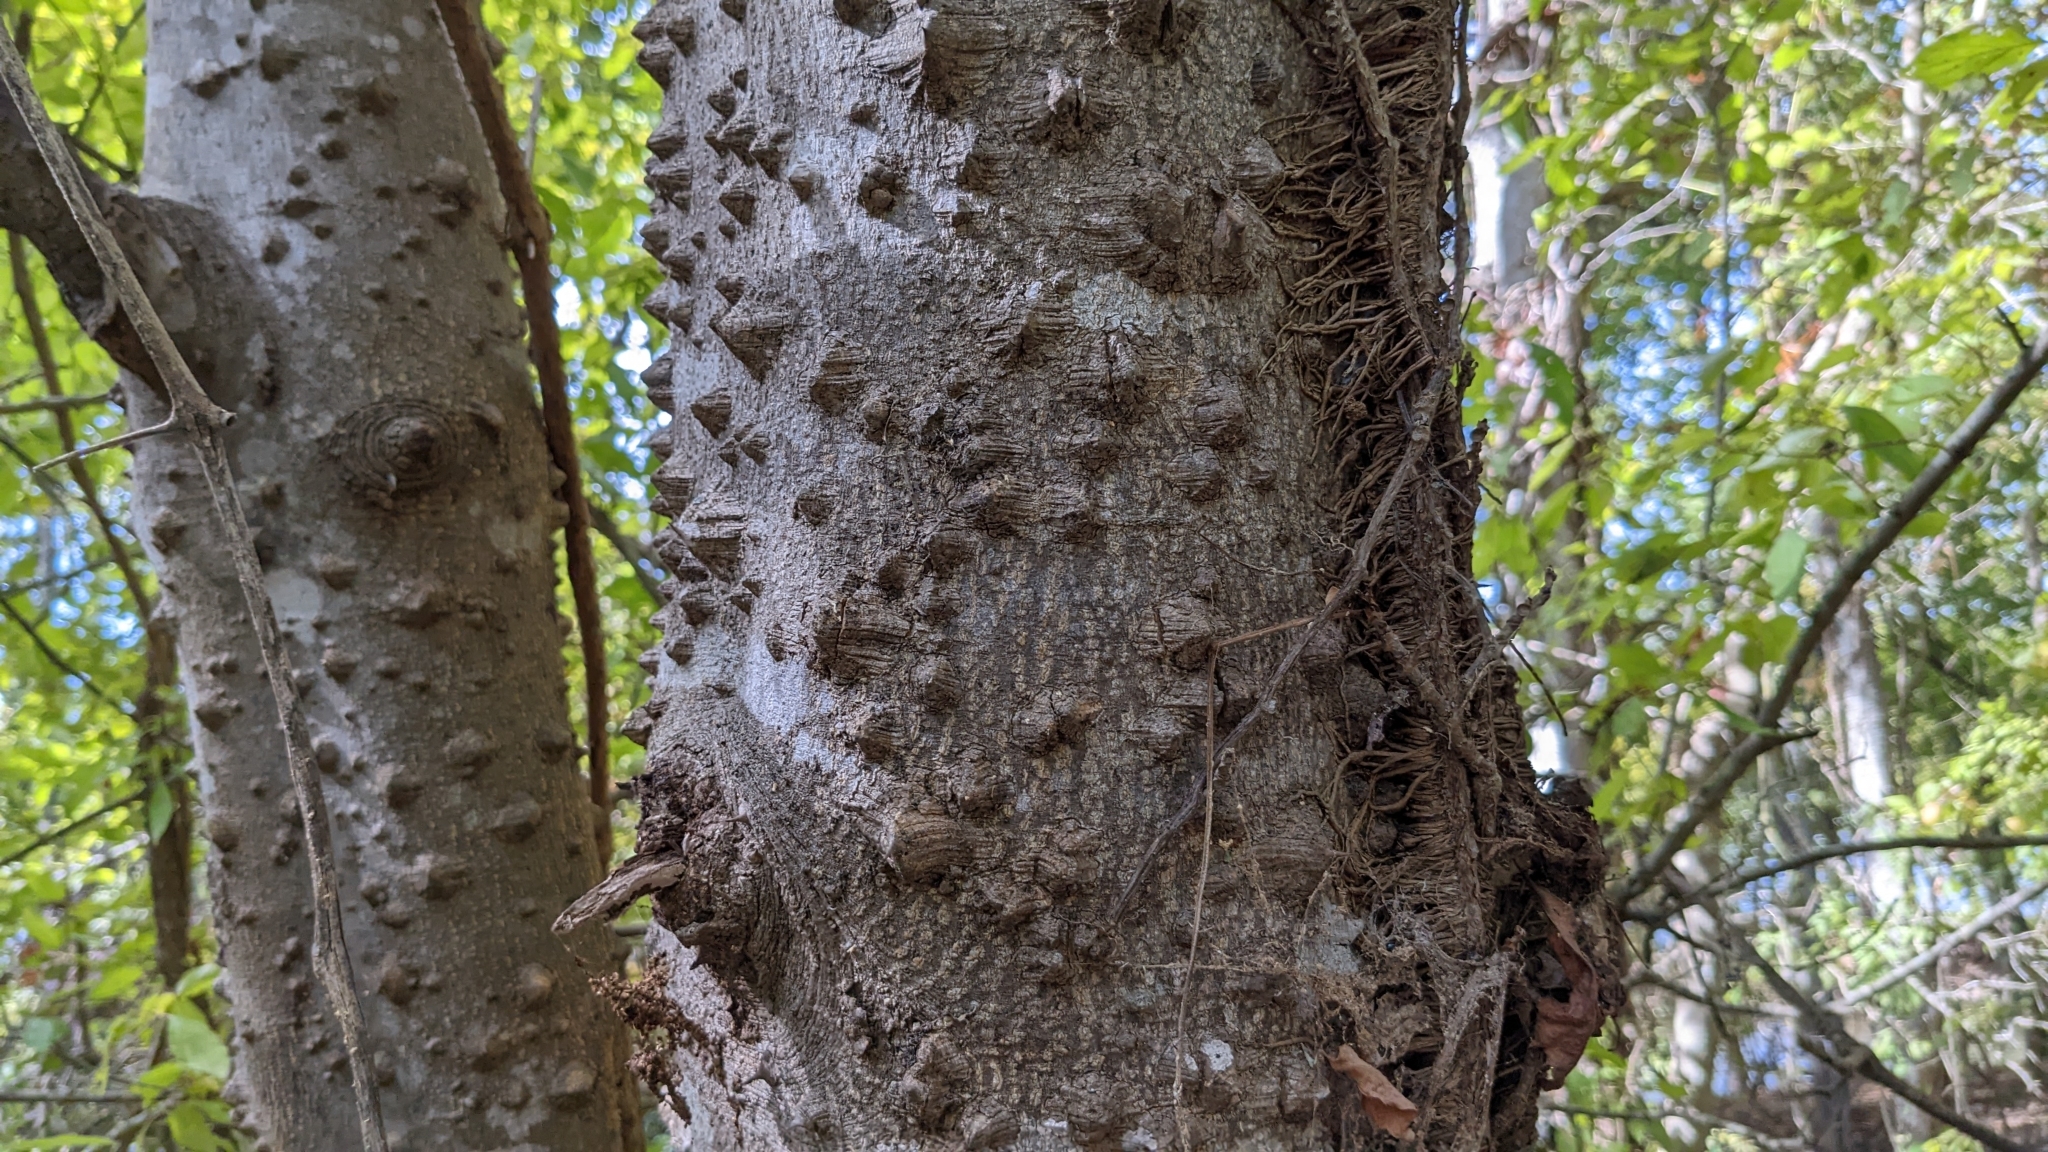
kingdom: Plantae
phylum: Tracheophyta
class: Magnoliopsida
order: Sapindales
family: Rutaceae
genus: Zanthoxylum
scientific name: Zanthoxylum clava-herculis
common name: Hercules'-club
